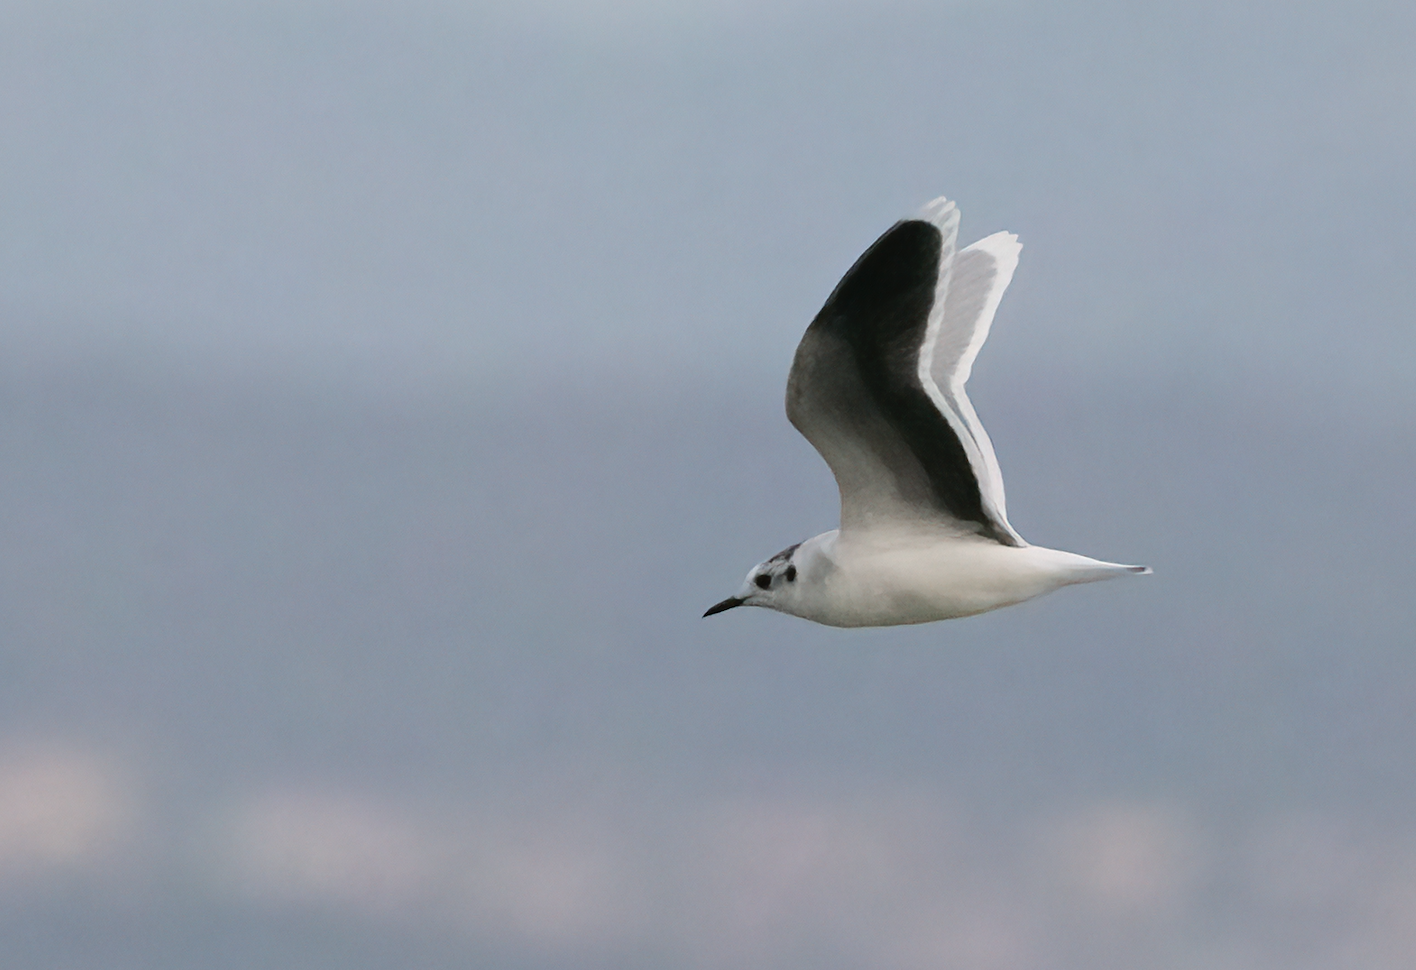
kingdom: Animalia
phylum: Chordata
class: Aves
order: Charadriiformes
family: Laridae
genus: Hydrocoloeus
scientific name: Hydrocoloeus minutus
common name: Little gull
